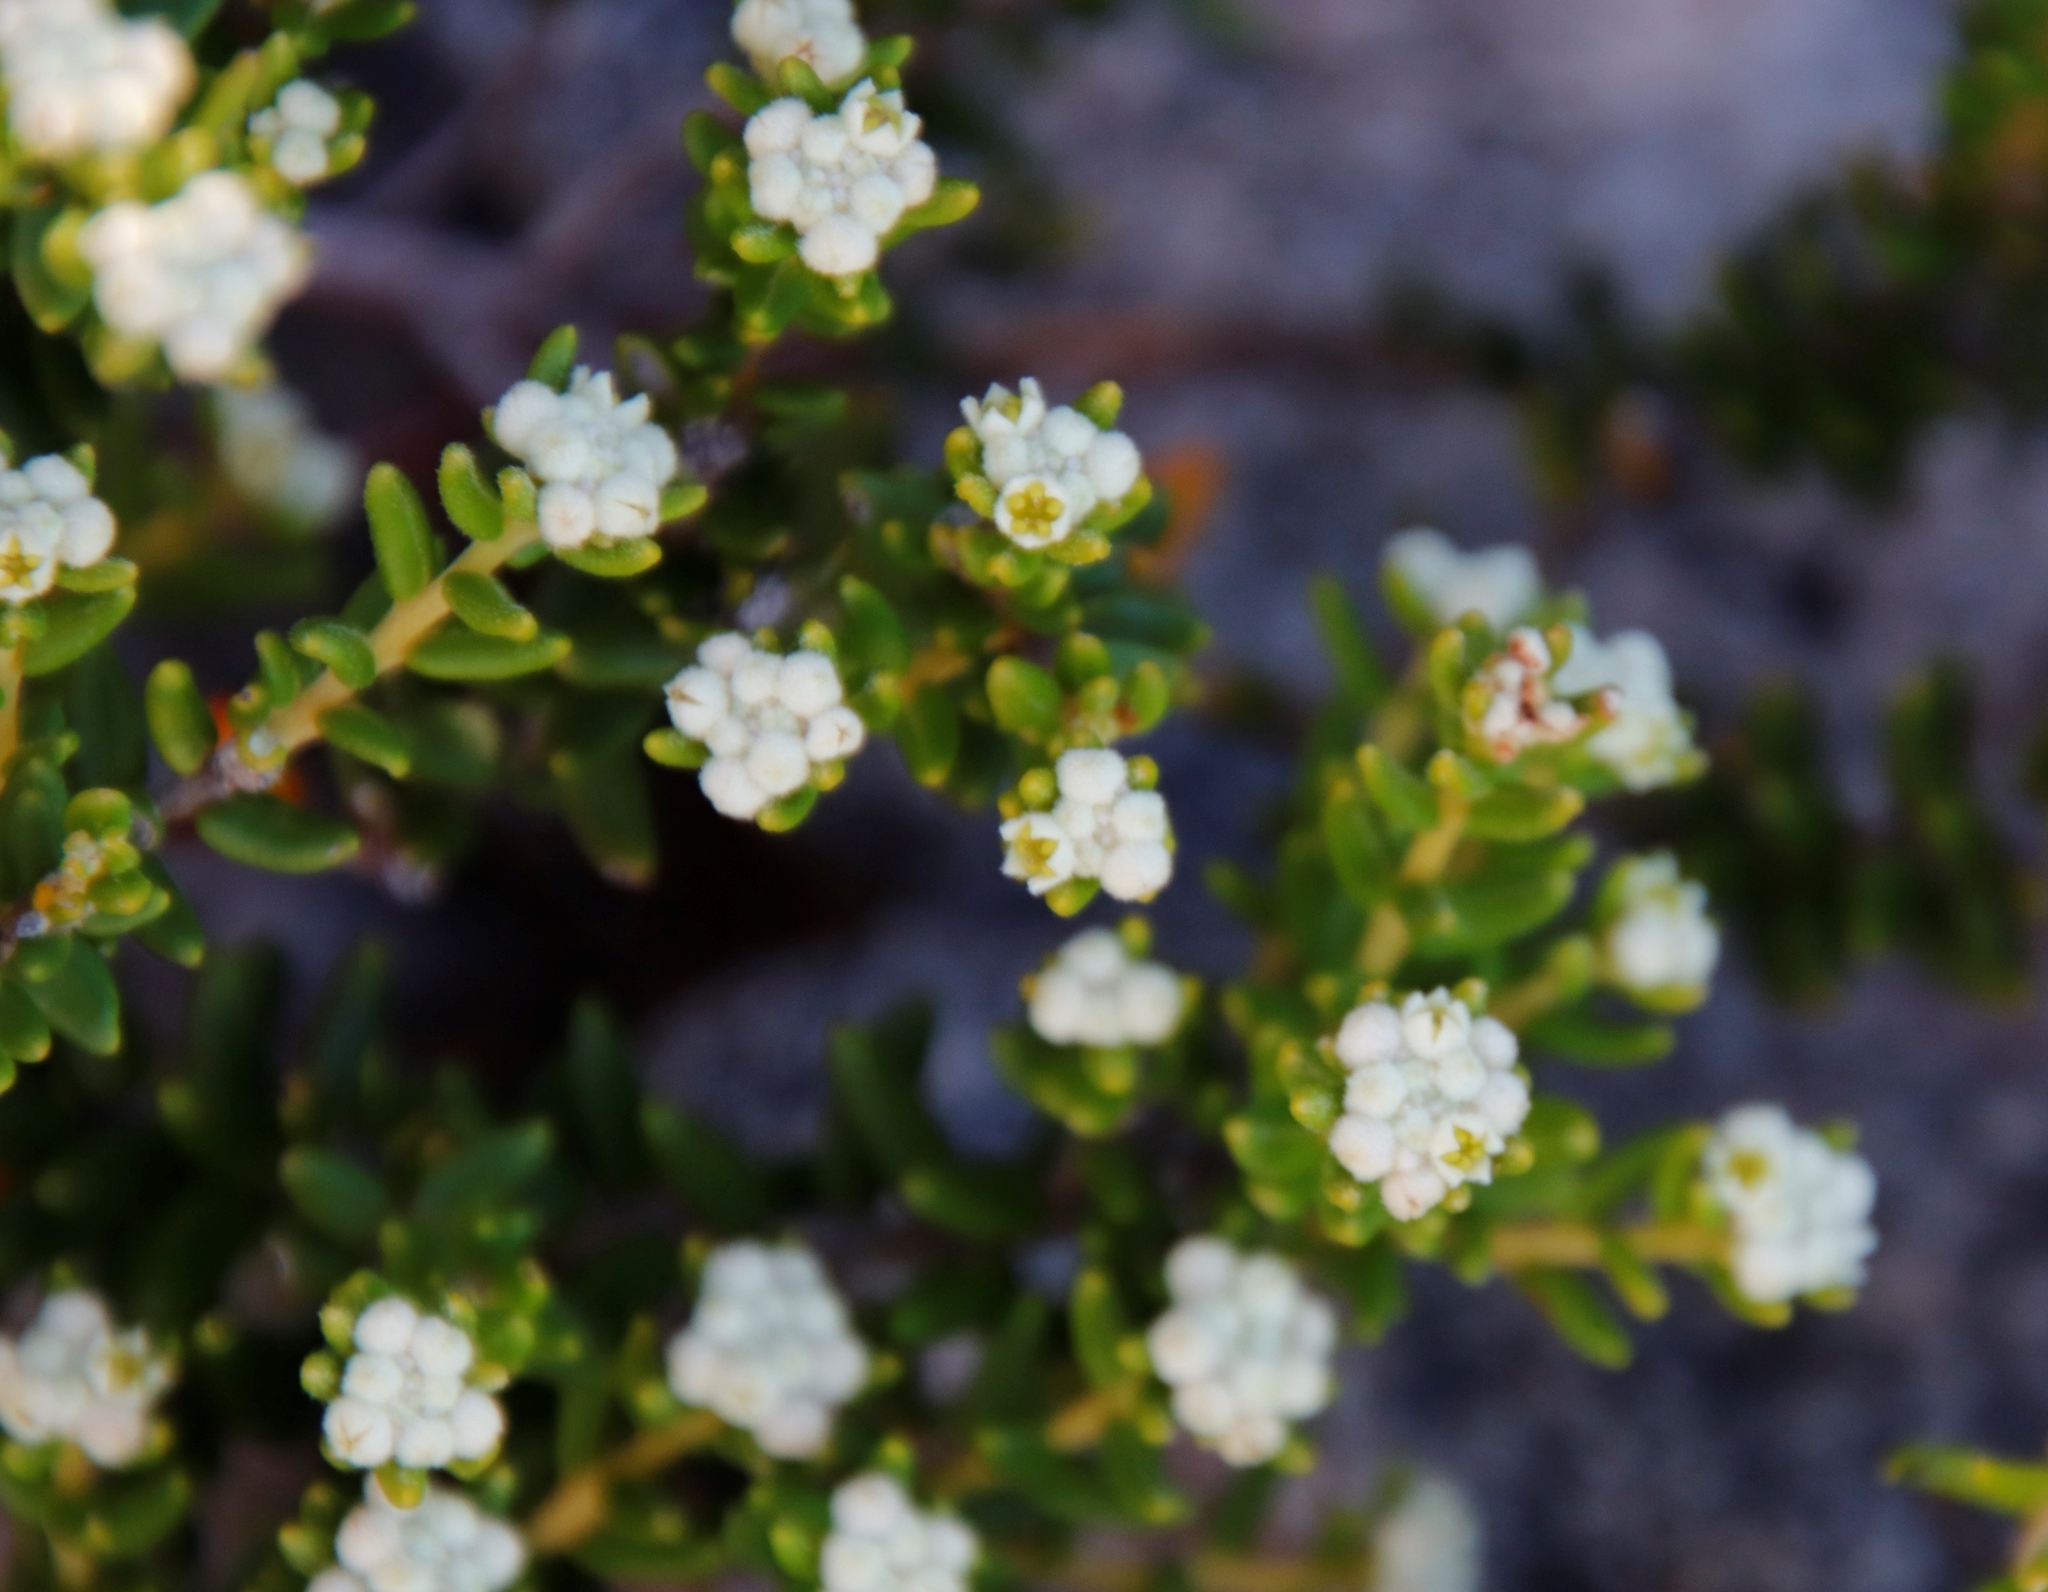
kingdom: Plantae
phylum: Tracheophyta
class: Magnoliopsida
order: Rosales
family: Rhamnaceae
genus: Phylica
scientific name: Phylica lasiocarpa
